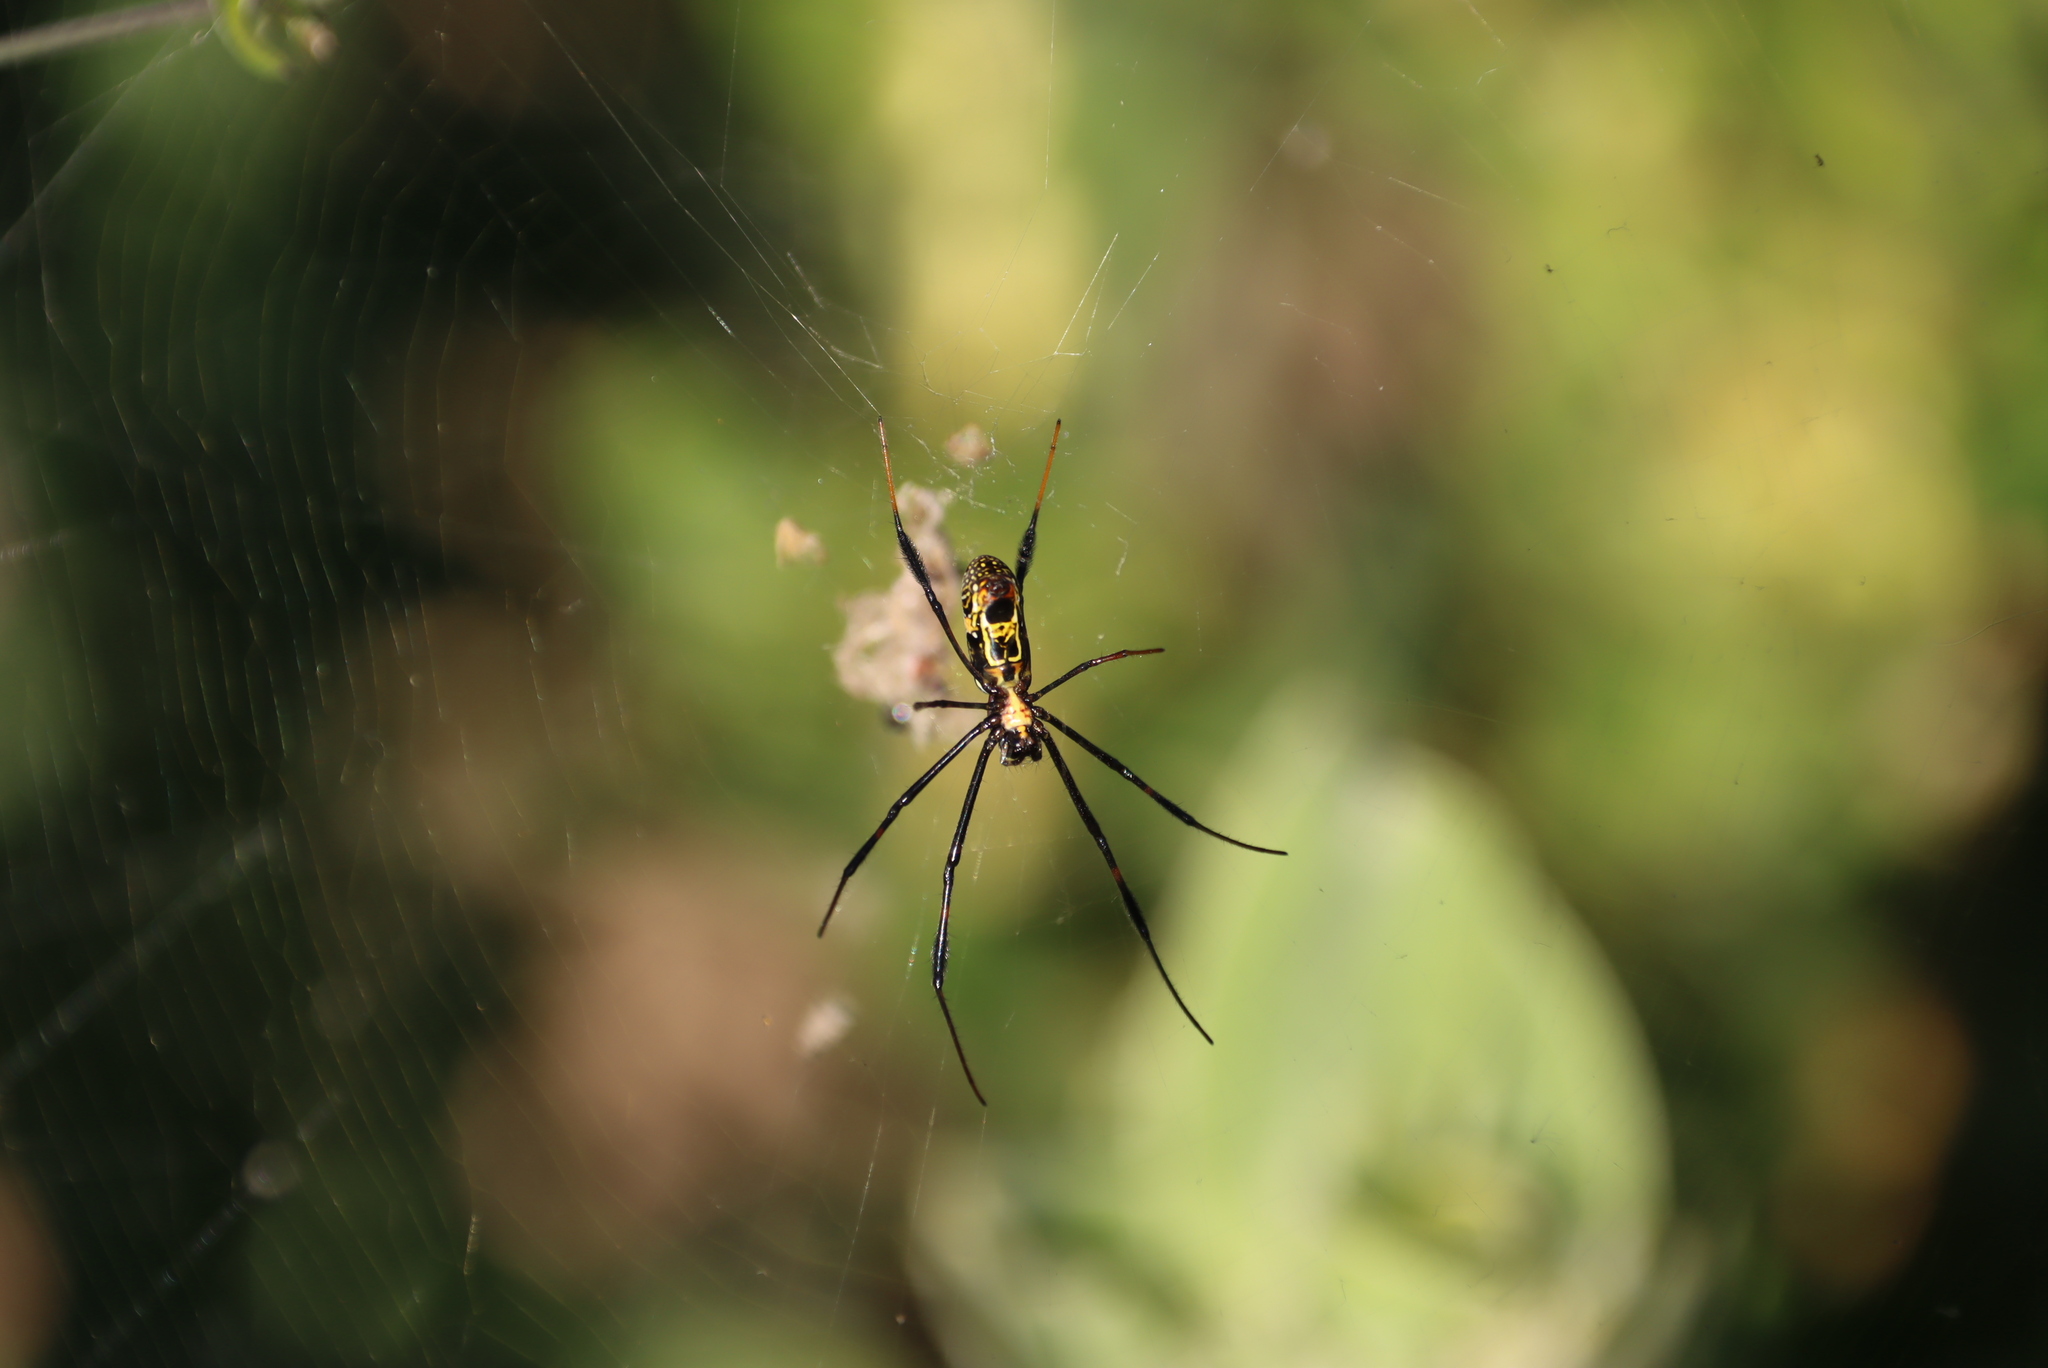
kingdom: Animalia
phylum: Arthropoda
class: Arachnida
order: Araneae
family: Araneidae
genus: Trichonephila
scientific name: Trichonephila fenestrata
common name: Hairy golden orb weaver
